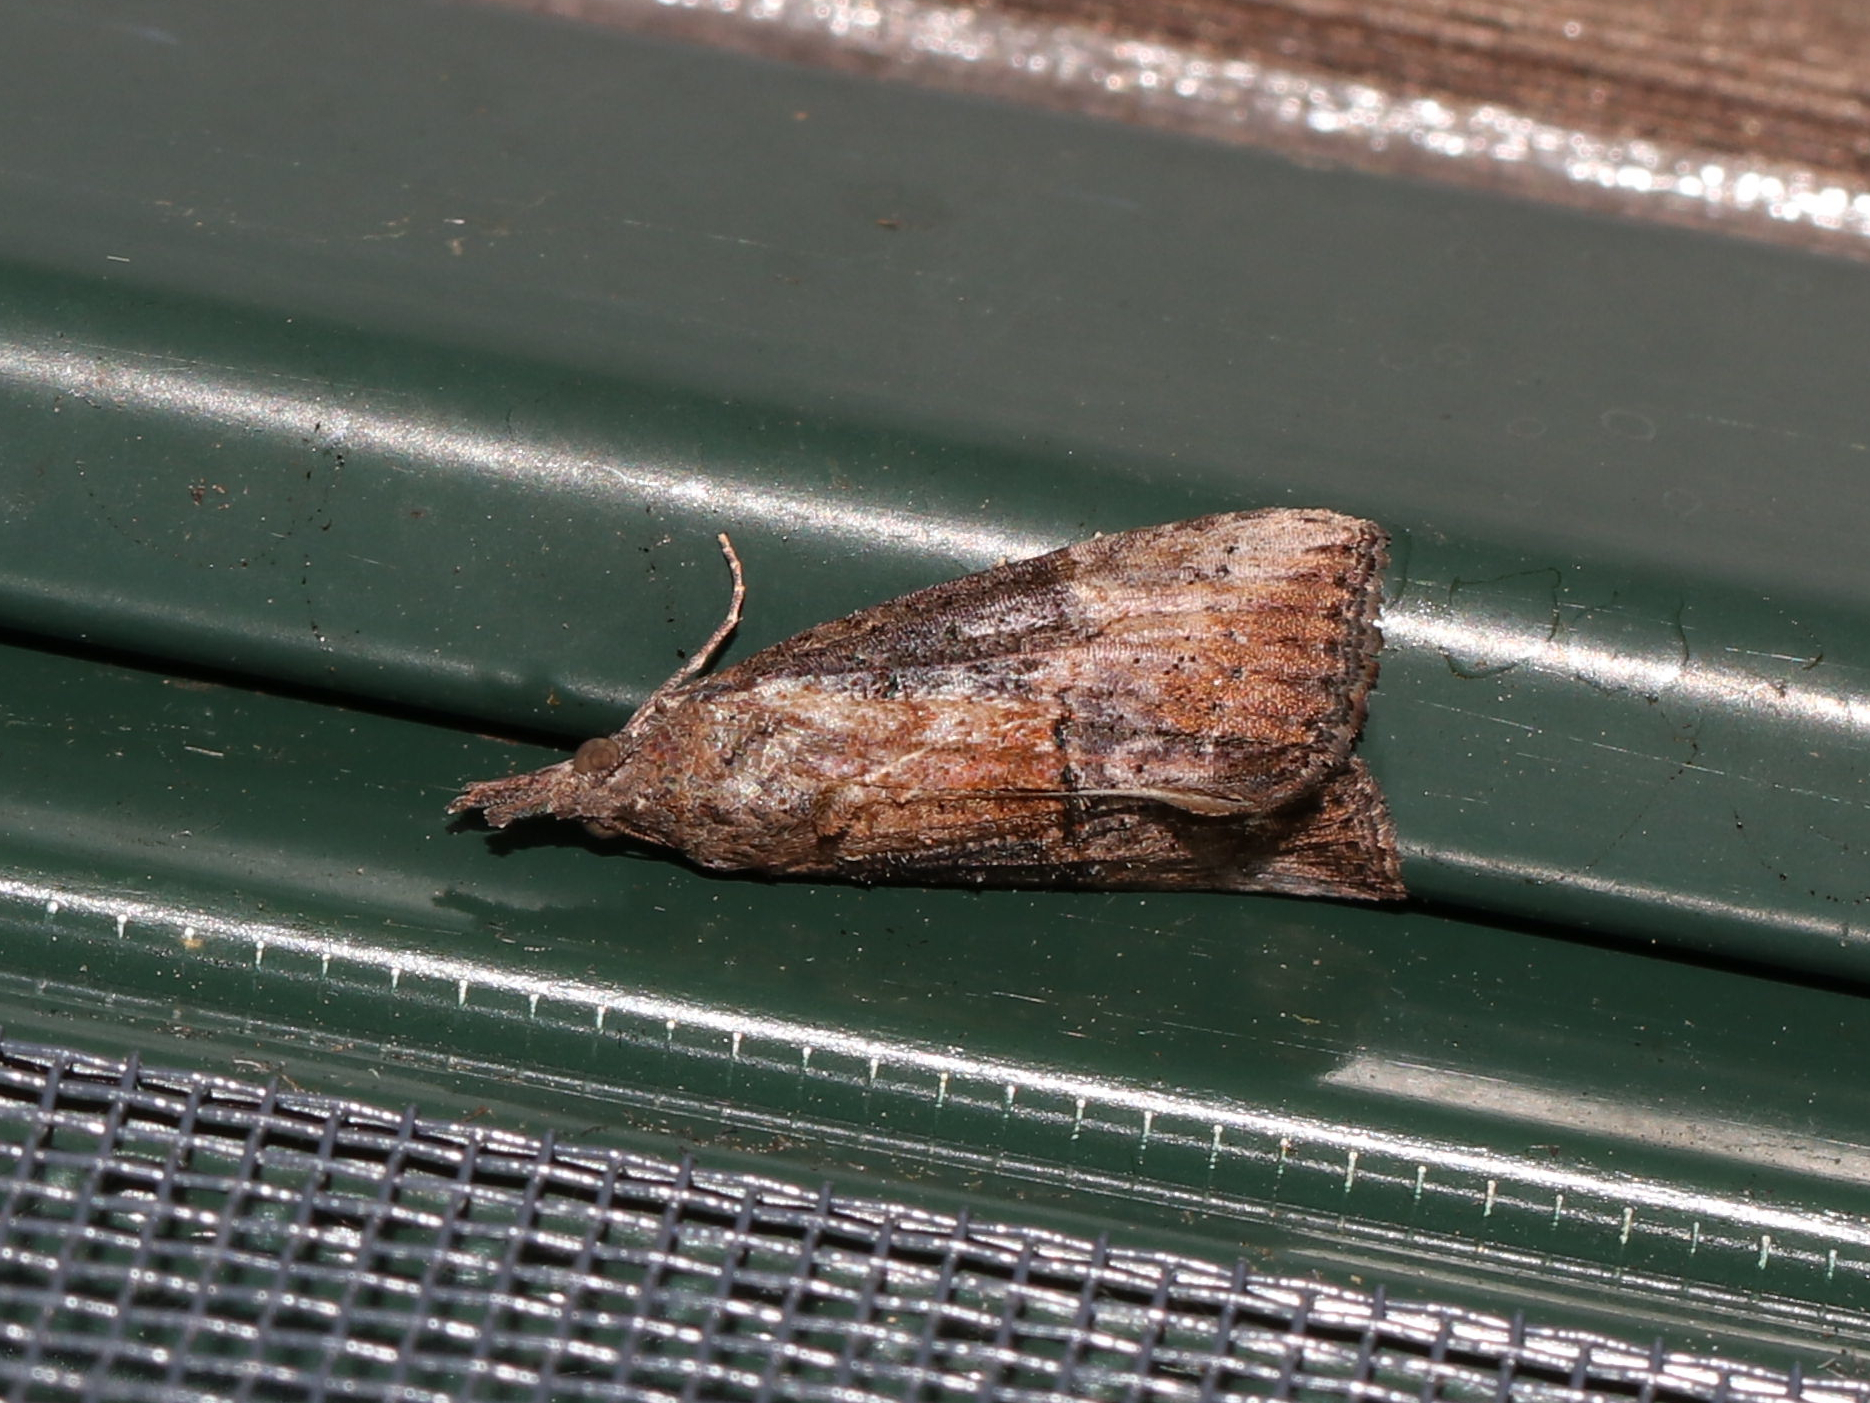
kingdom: Animalia
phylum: Arthropoda
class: Insecta
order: Lepidoptera
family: Erebidae
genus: Hypena
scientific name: Hypena scabra
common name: Green cloverworm
